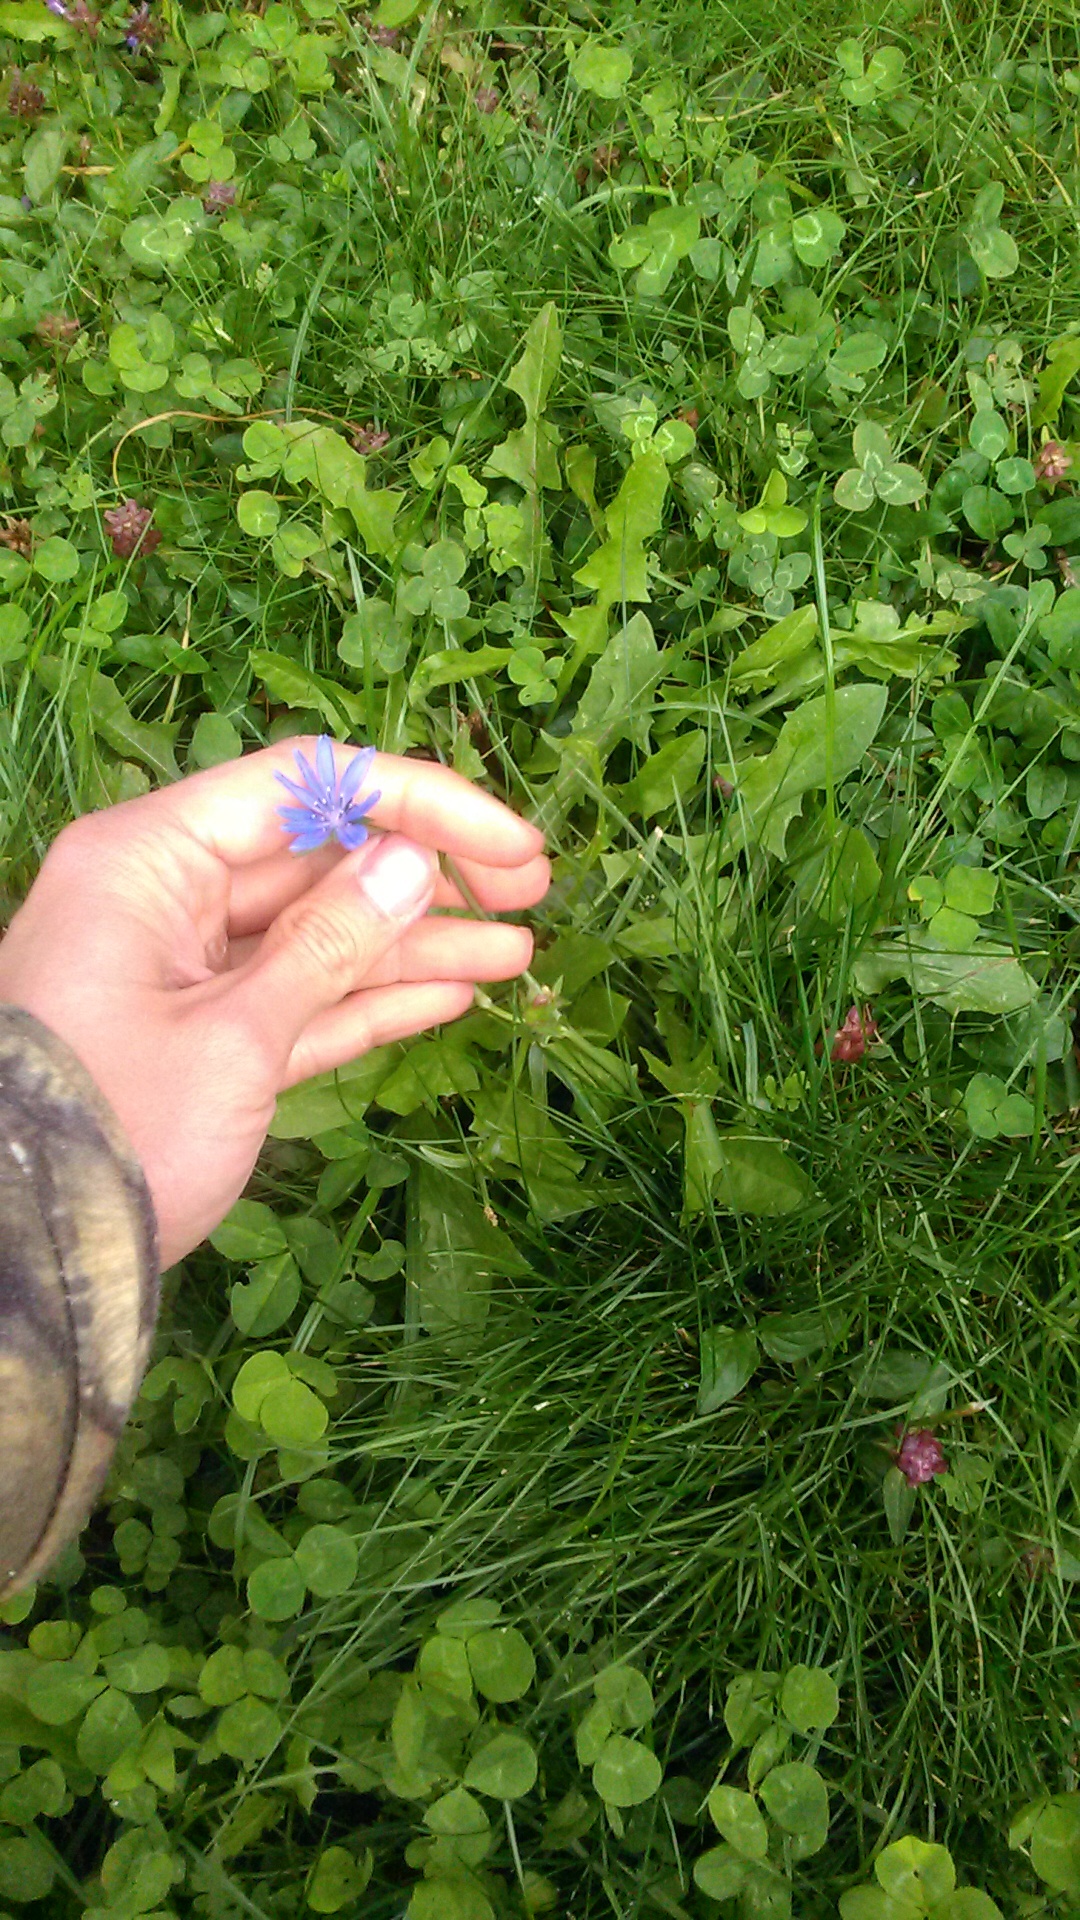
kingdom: Plantae
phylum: Tracheophyta
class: Magnoliopsida
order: Asterales
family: Asteraceae
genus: Cichorium
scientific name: Cichorium intybus
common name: Chicory
